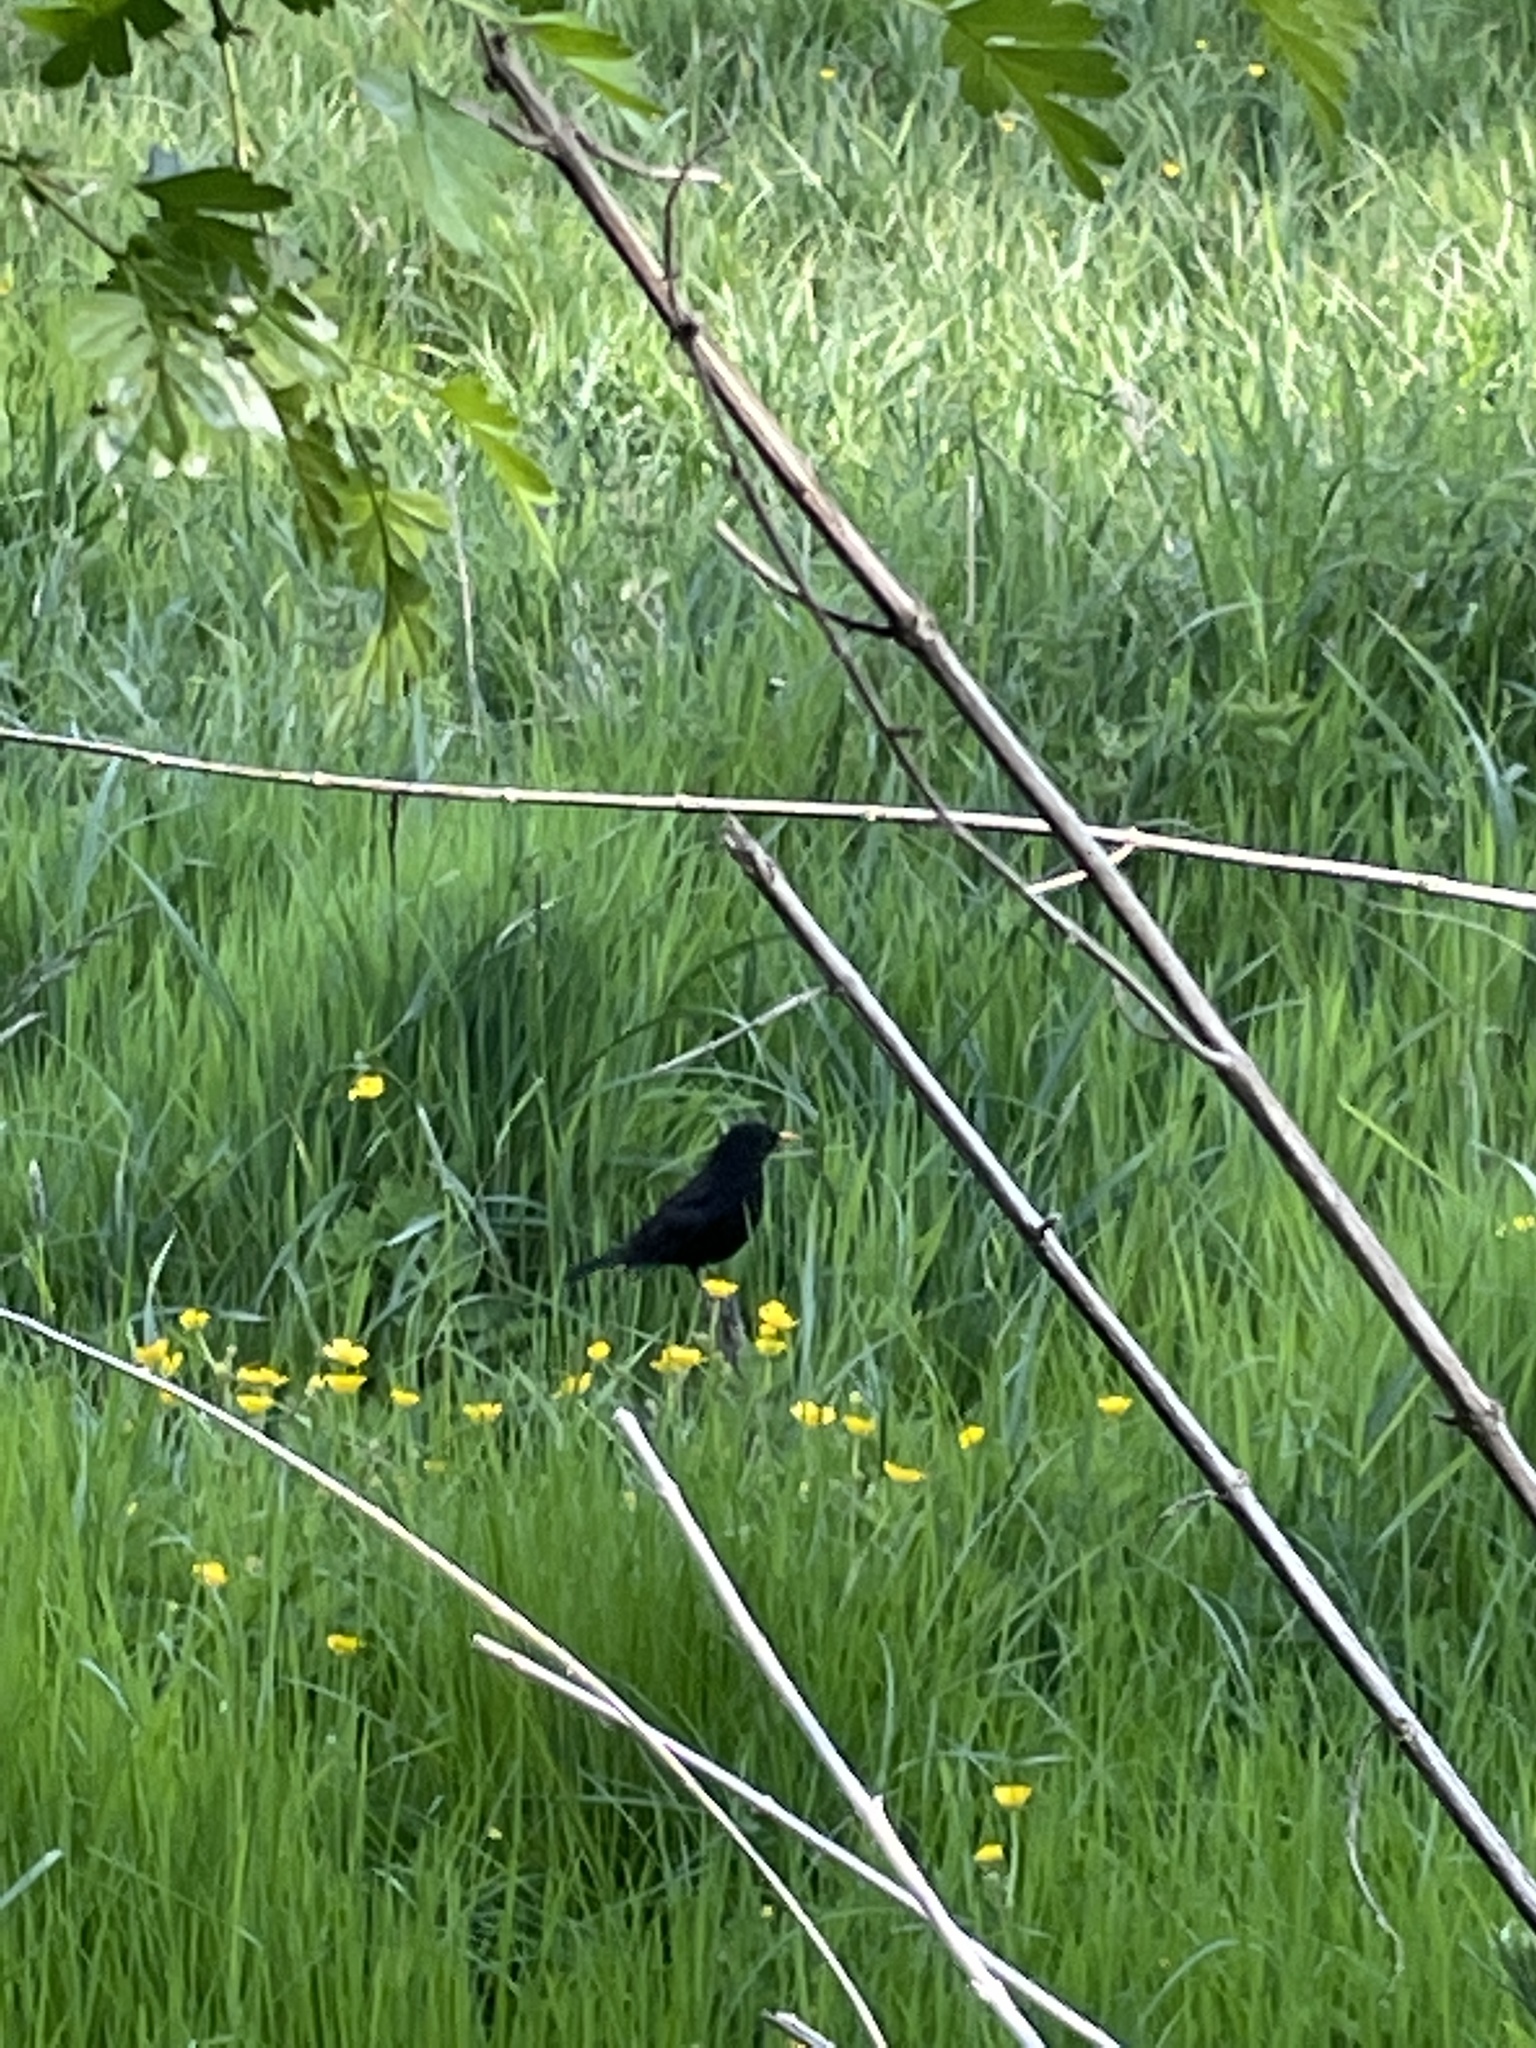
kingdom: Animalia
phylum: Chordata
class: Aves
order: Passeriformes
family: Turdidae
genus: Turdus
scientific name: Turdus merula
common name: Common blackbird
